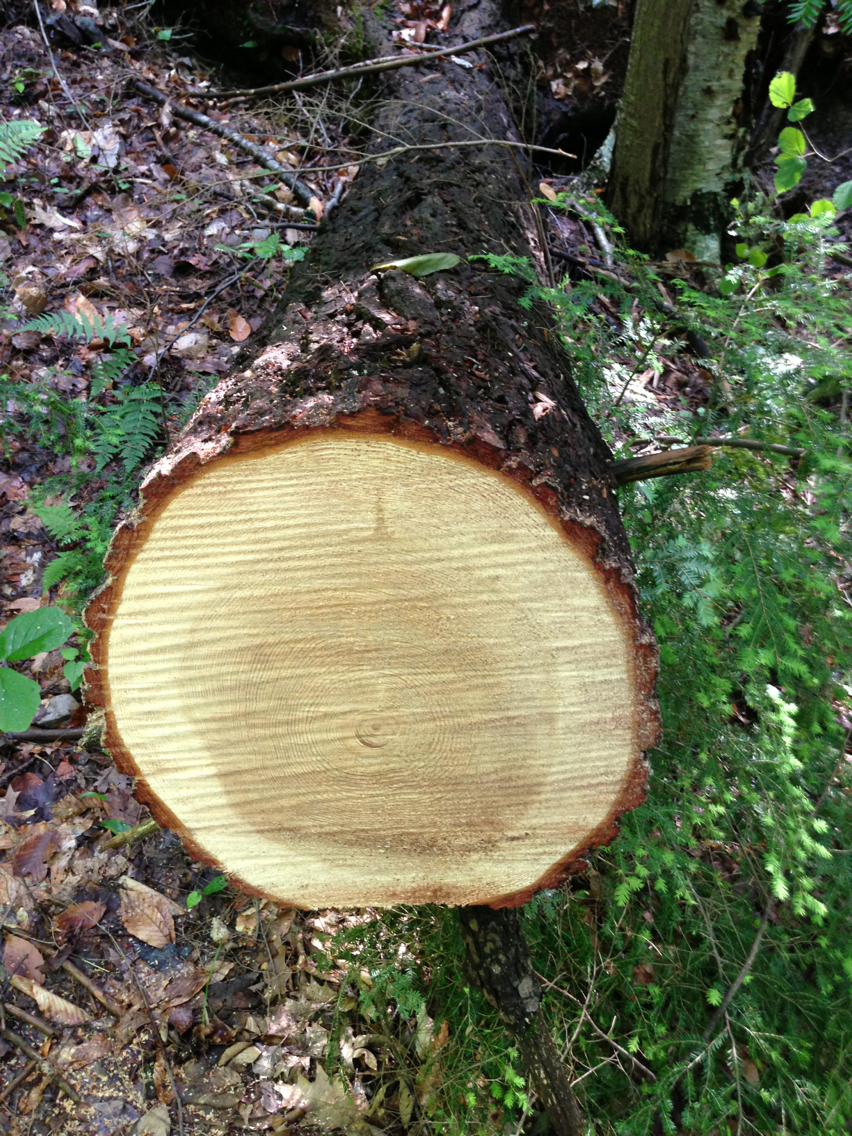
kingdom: Plantae
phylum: Tracheophyta
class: Pinopsida
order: Pinales
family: Pinaceae
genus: Tsuga
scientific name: Tsuga canadensis
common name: Eastern hemlock
